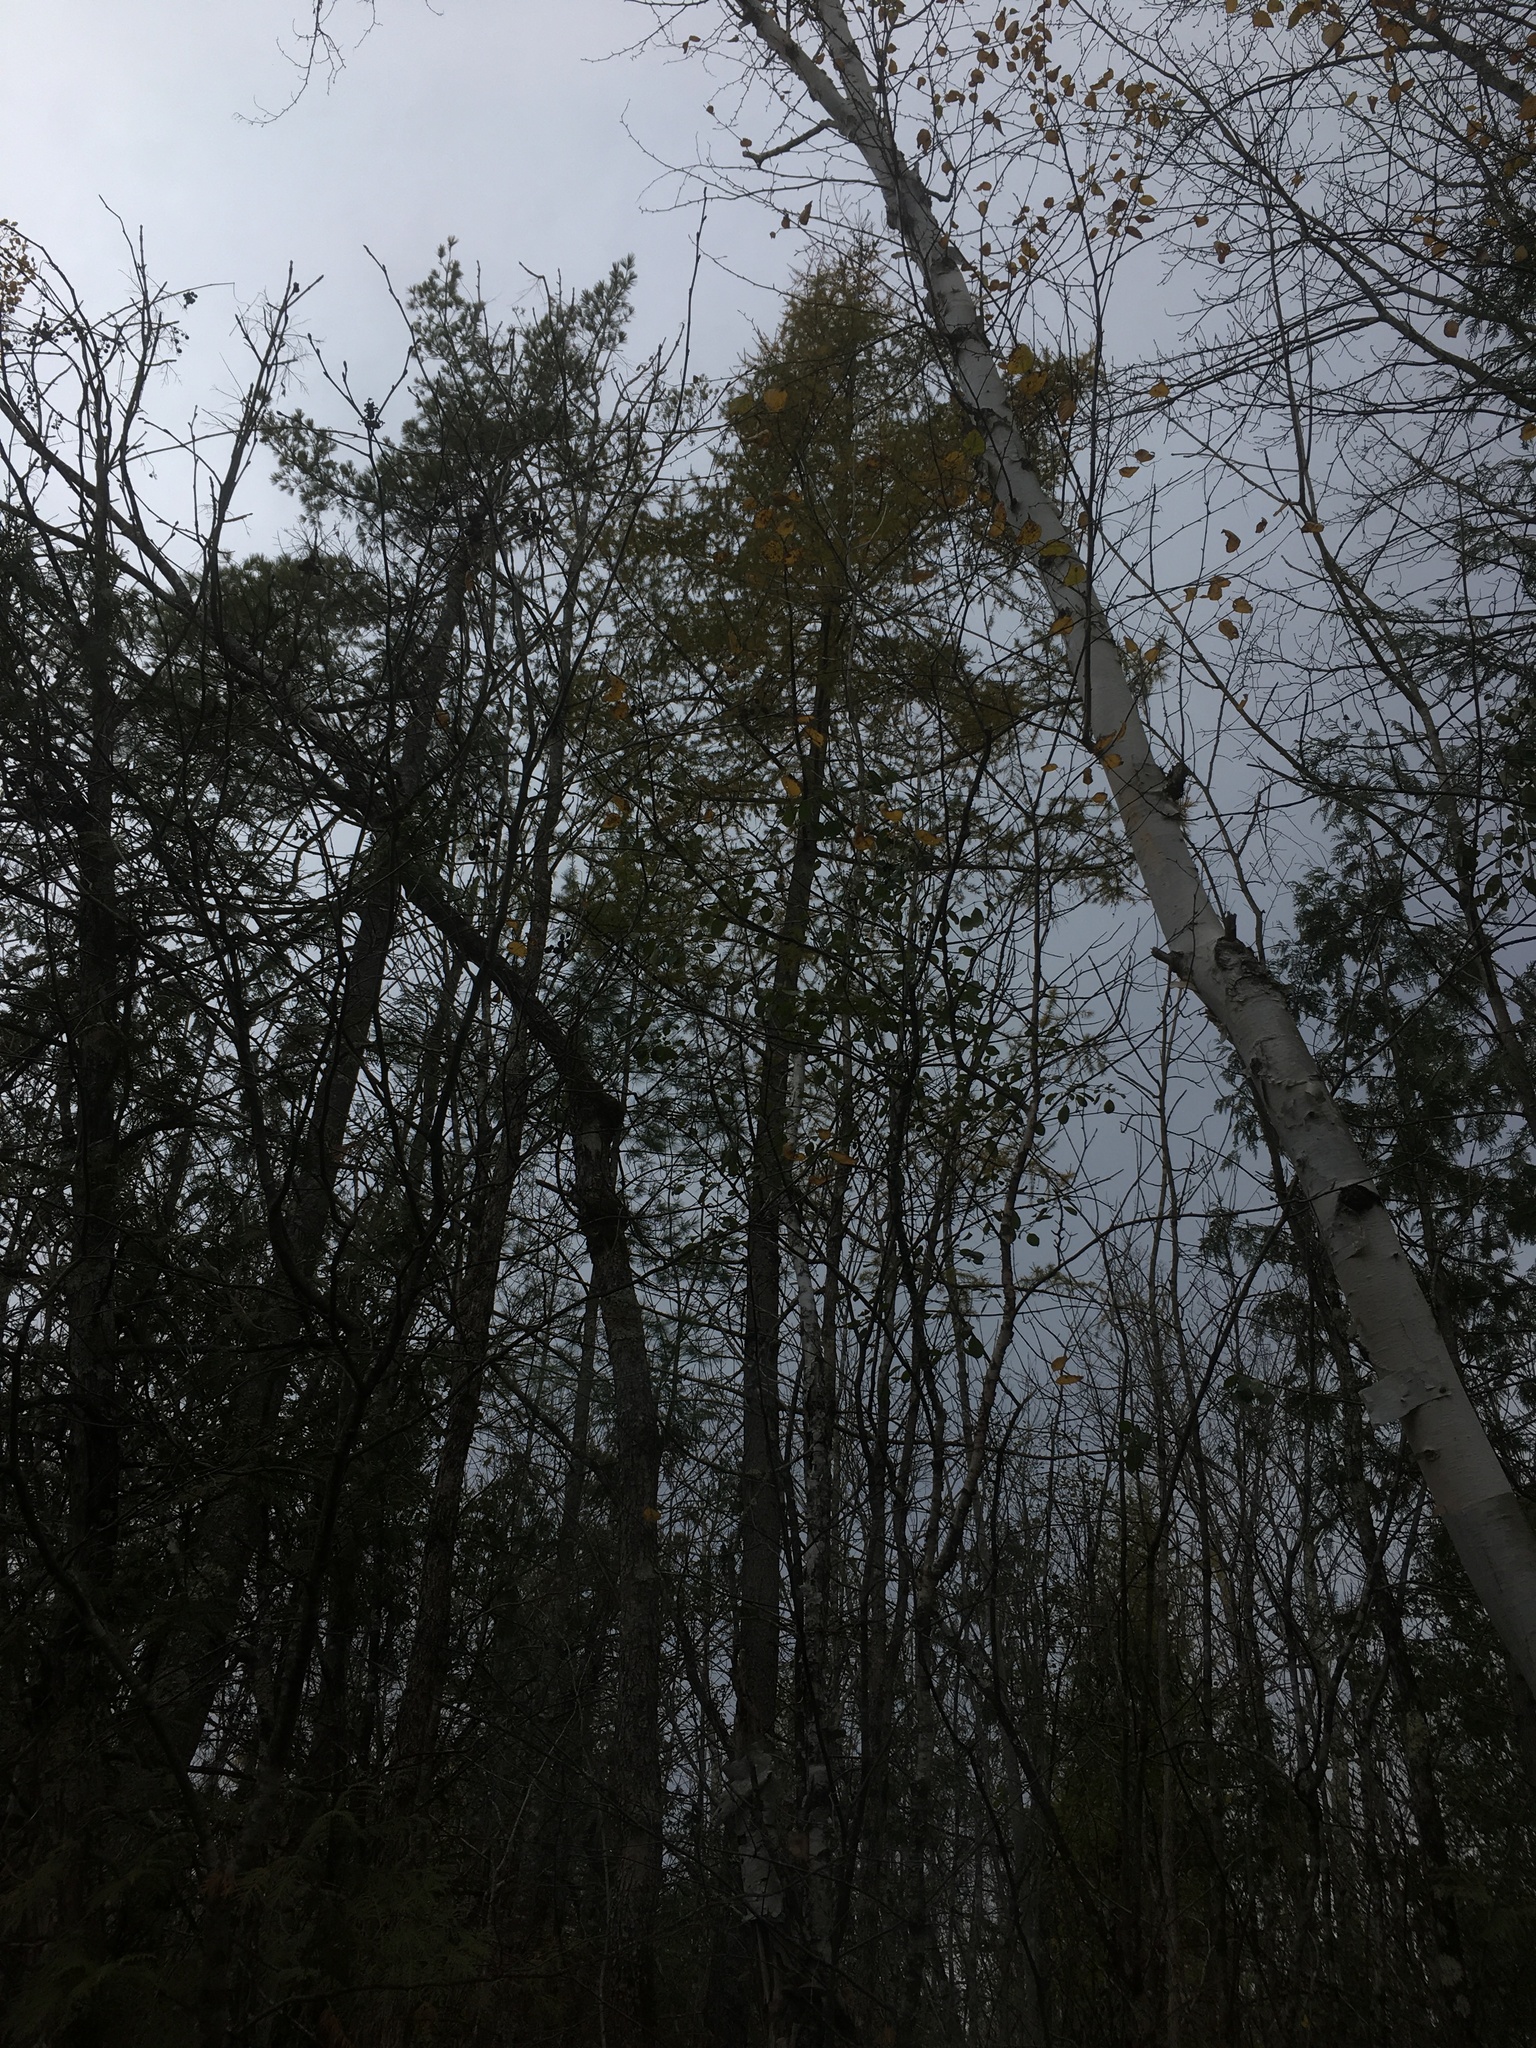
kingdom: Plantae
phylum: Tracheophyta
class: Pinopsida
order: Pinales
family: Pinaceae
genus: Larix
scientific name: Larix laricina
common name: American larch
